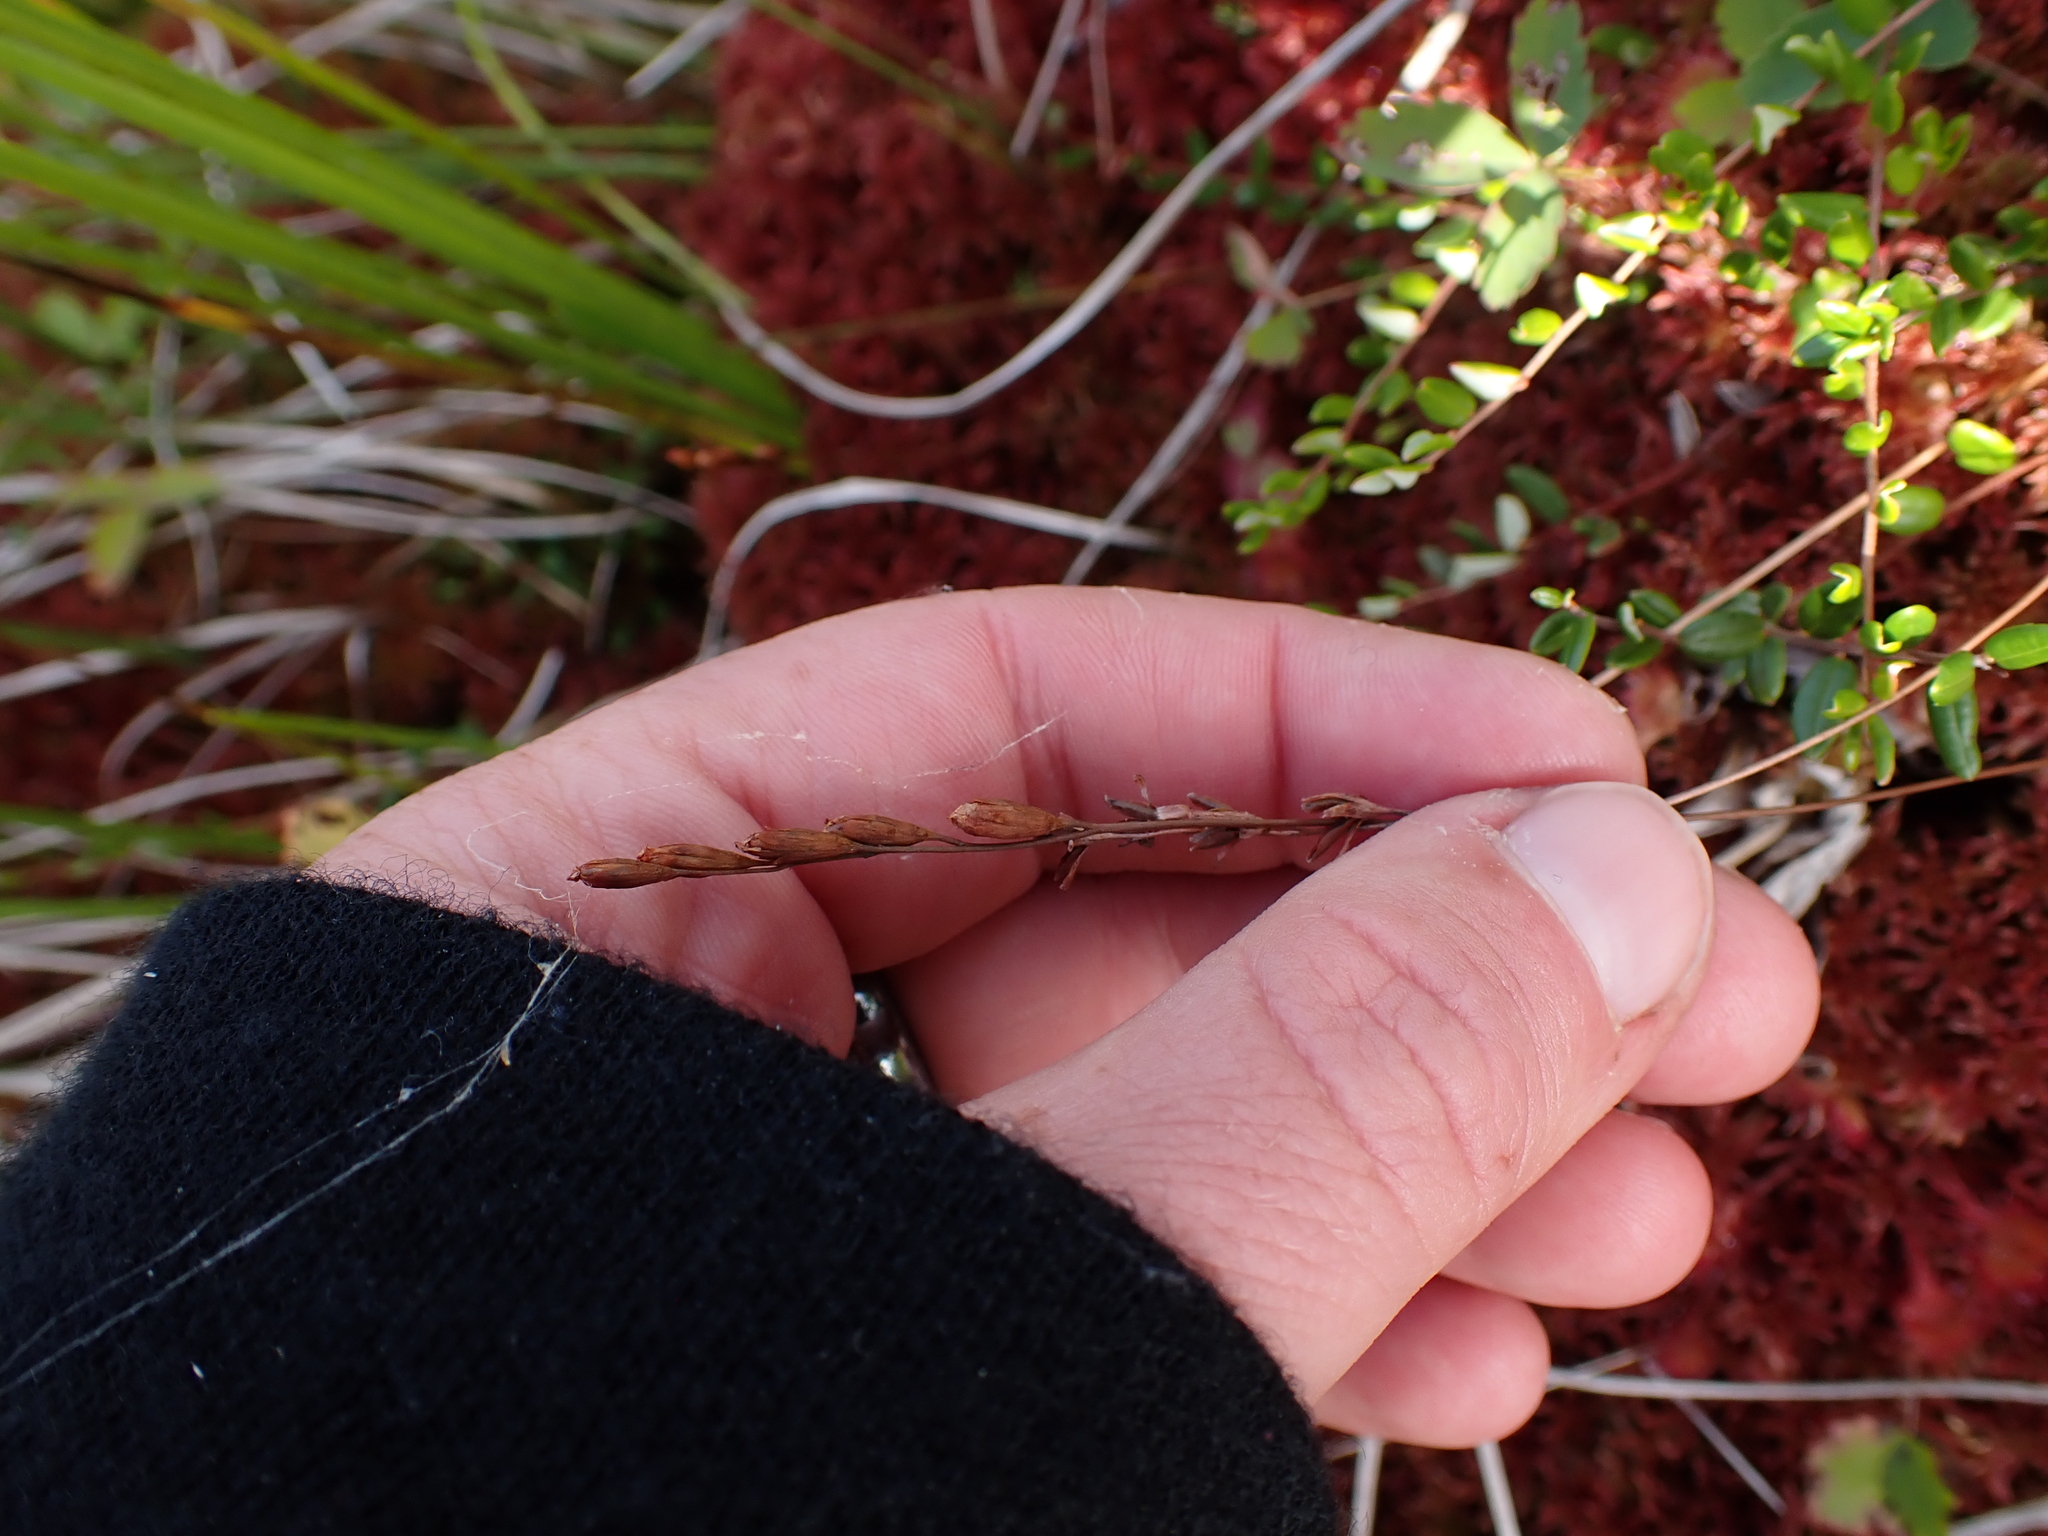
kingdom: Plantae
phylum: Tracheophyta
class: Magnoliopsida
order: Caryophyllales
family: Droseraceae
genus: Drosera
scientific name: Drosera rotundifolia
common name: Round-leaved sundew
